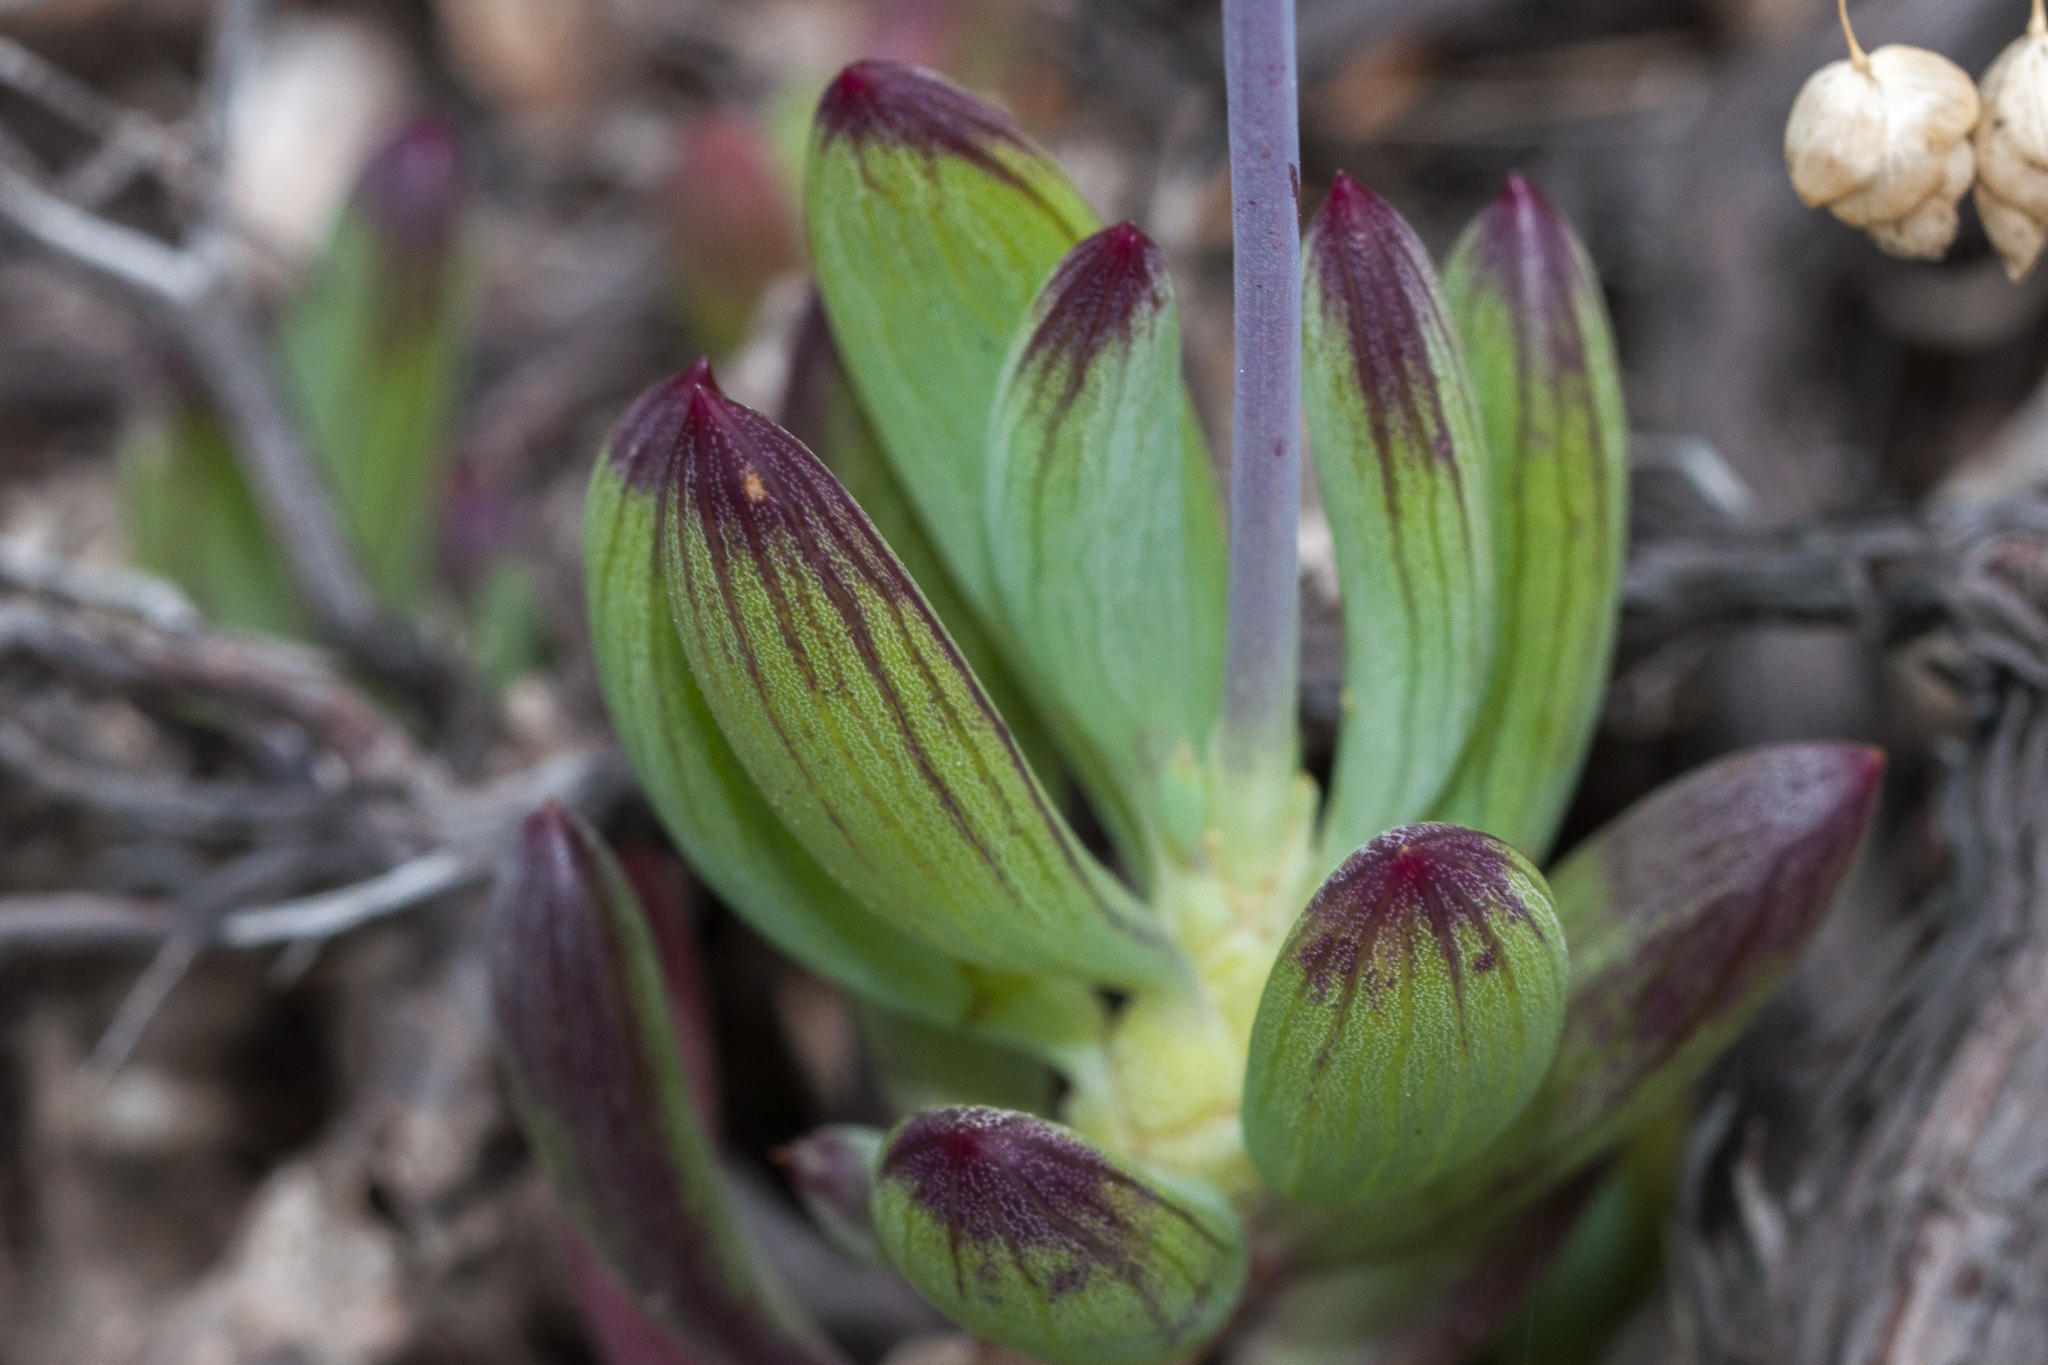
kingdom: Plantae
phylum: Tracheophyta
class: Magnoliopsida
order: Asterales
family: Asteraceae
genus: Curio
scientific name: Curio crassulifolius
